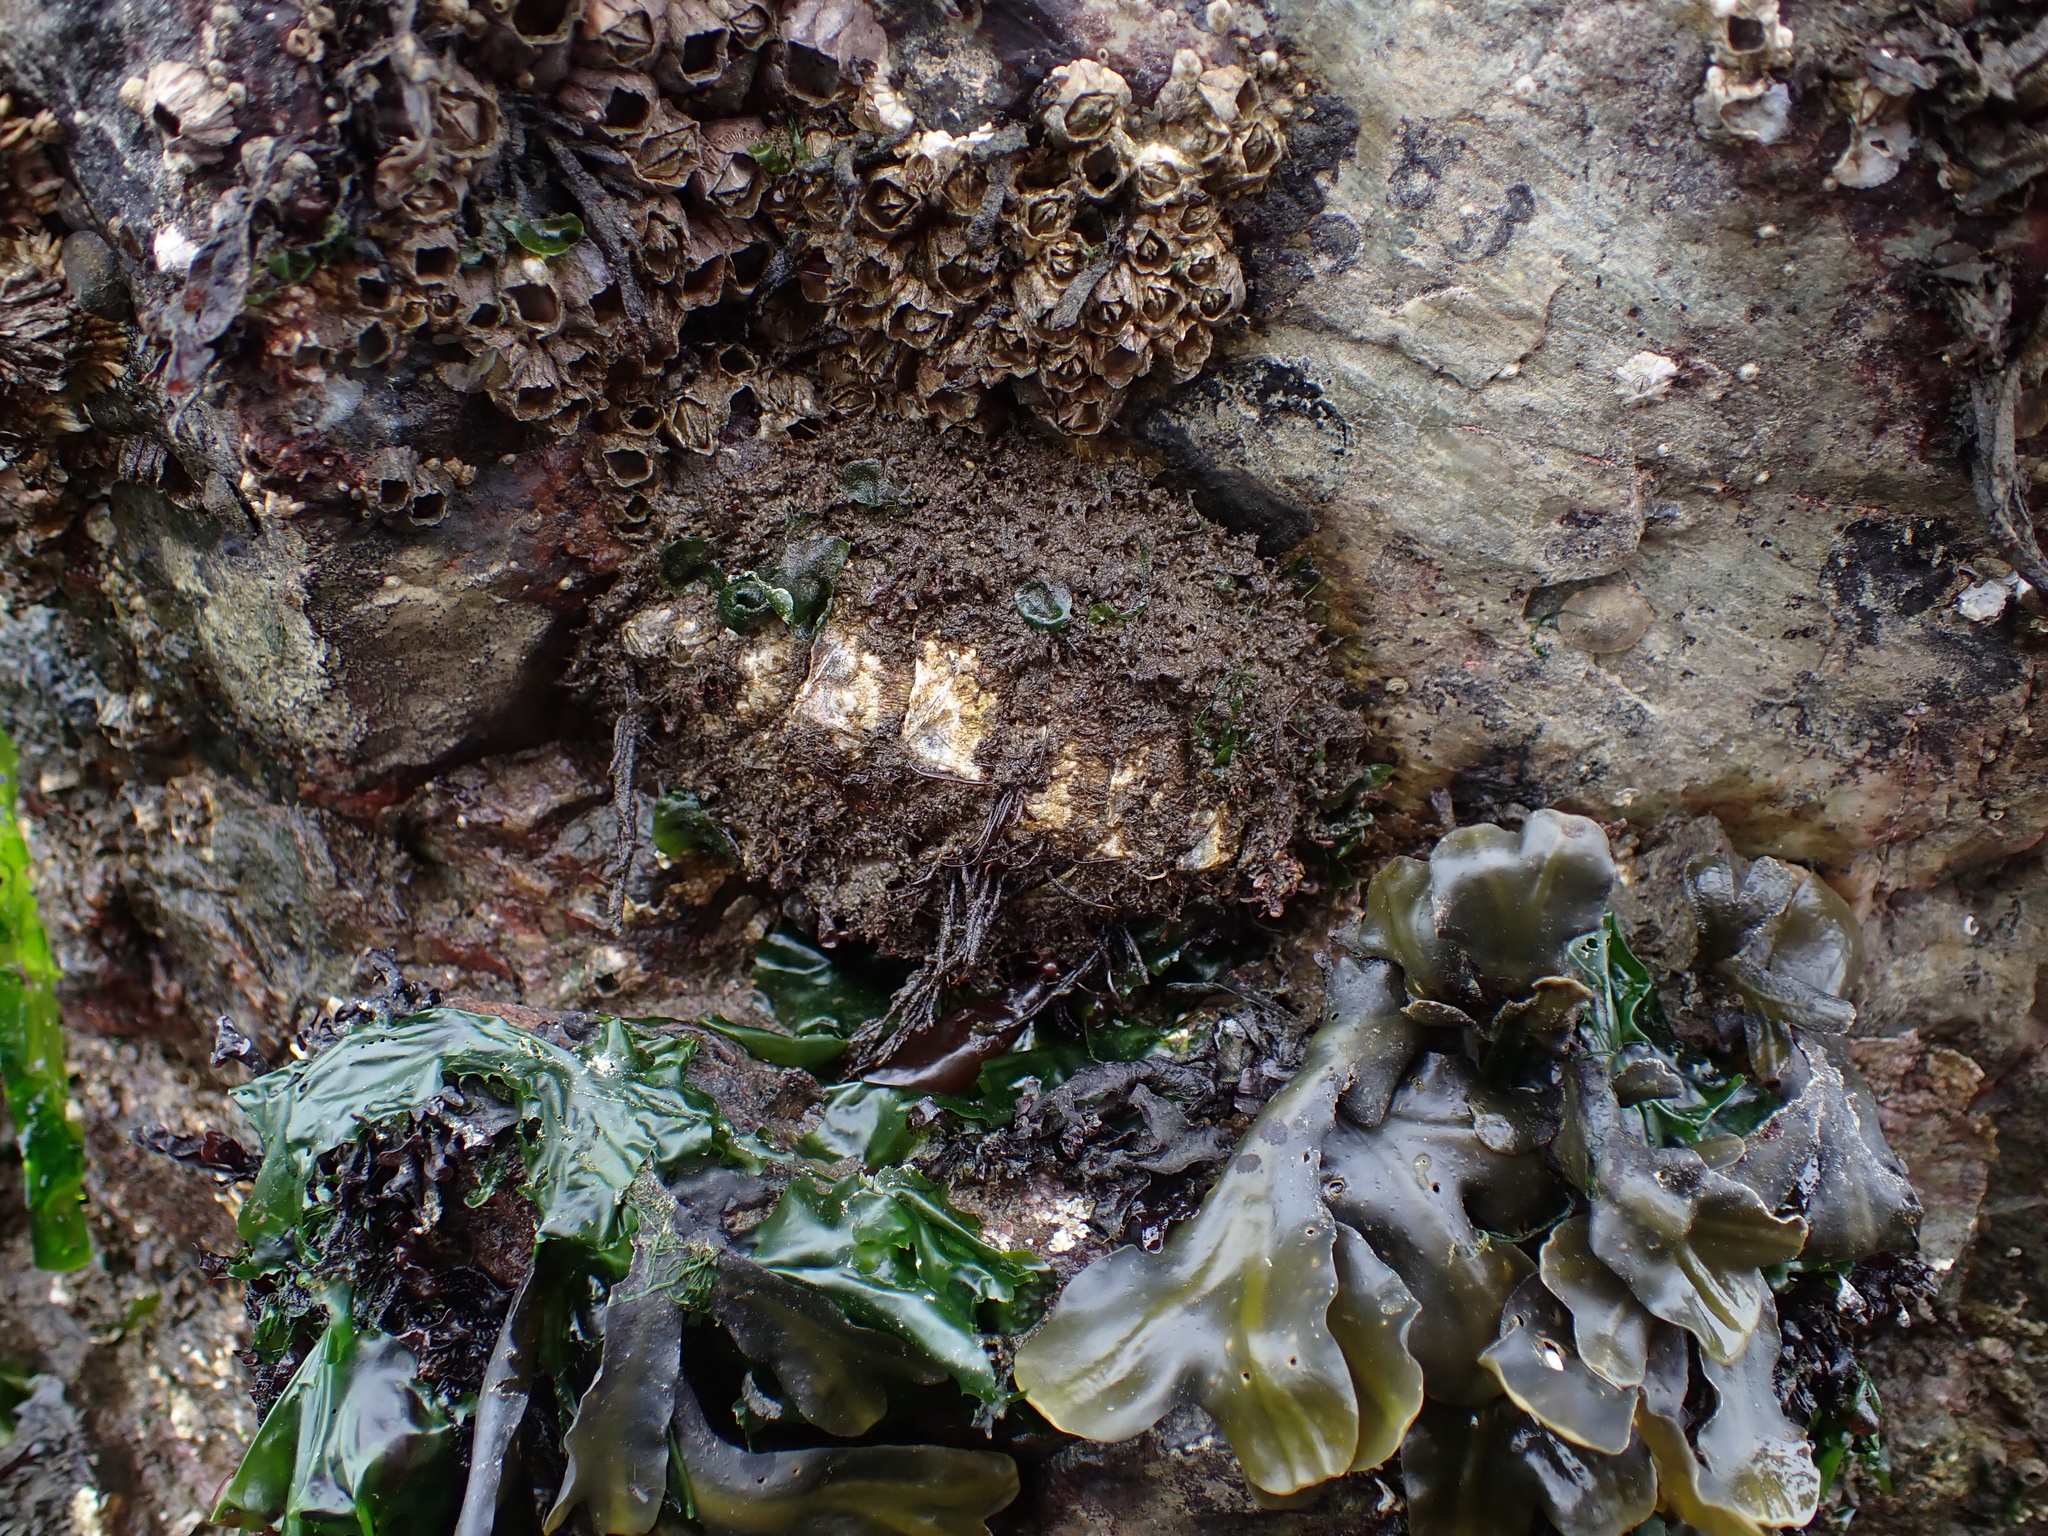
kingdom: Animalia
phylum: Mollusca
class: Polyplacophora
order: Chitonida
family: Mopaliidae
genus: Mopalia
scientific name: Mopalia muscosa
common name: Mossy chiton
